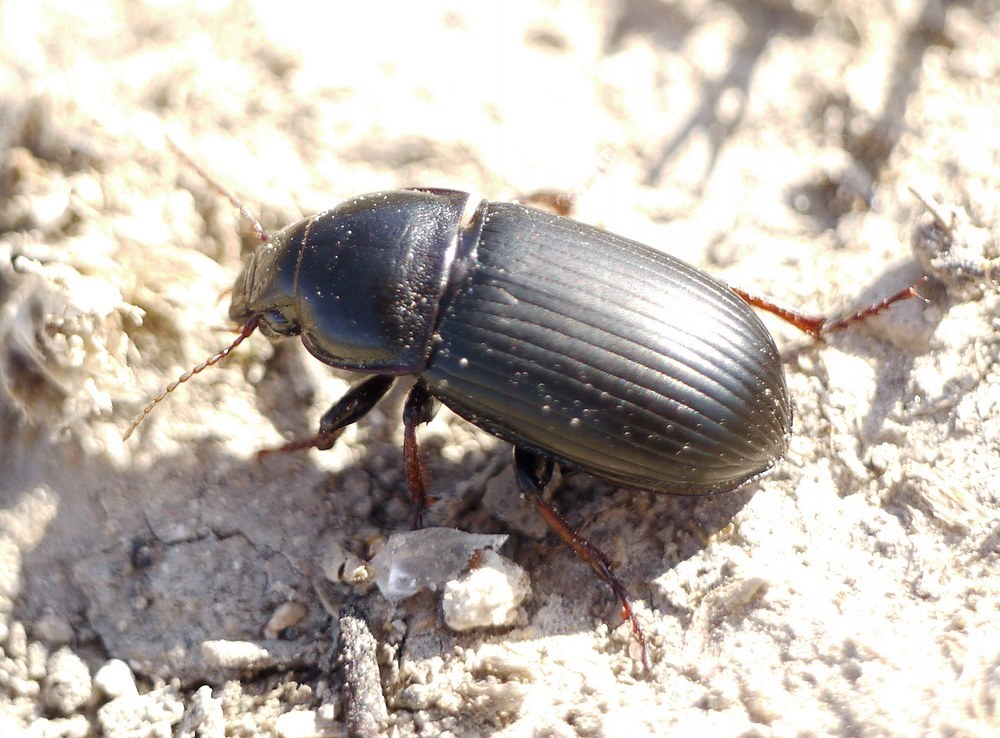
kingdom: Animalia
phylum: Arthropoda
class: Insecta
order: Coleoptera
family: Carabidae
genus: Zabrus
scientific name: Zabrus tenebrioides
